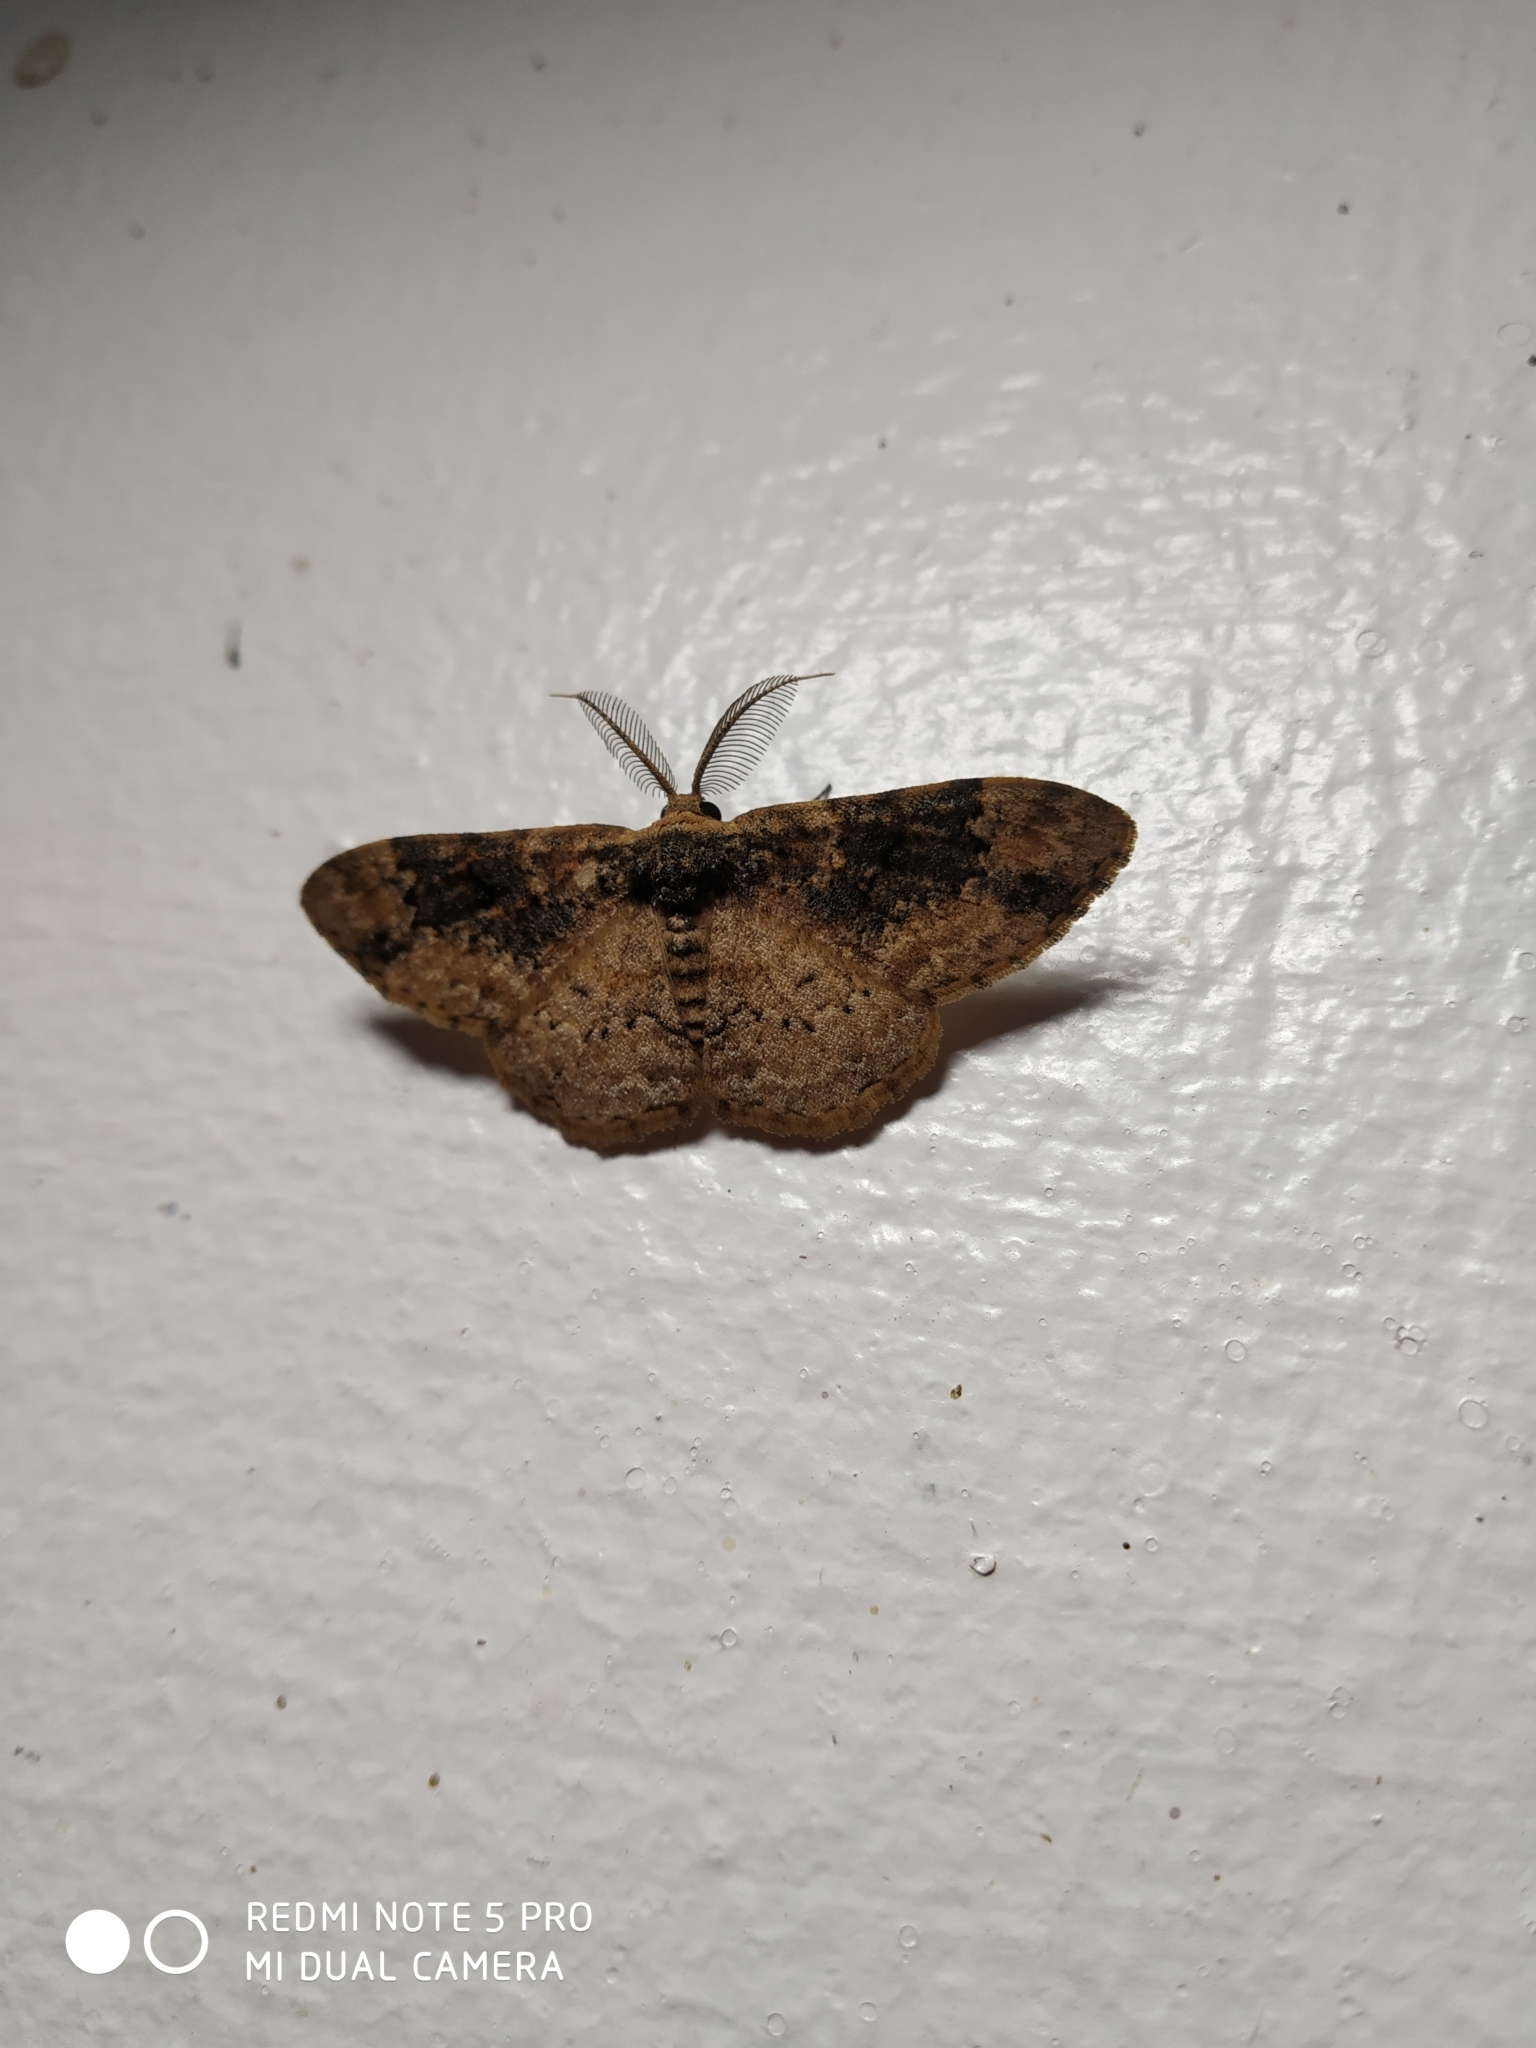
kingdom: Animalia
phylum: Arthropoda
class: Insecta
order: Lepidoptera
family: Geometridae
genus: Parapholodes
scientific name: Parapholodes
